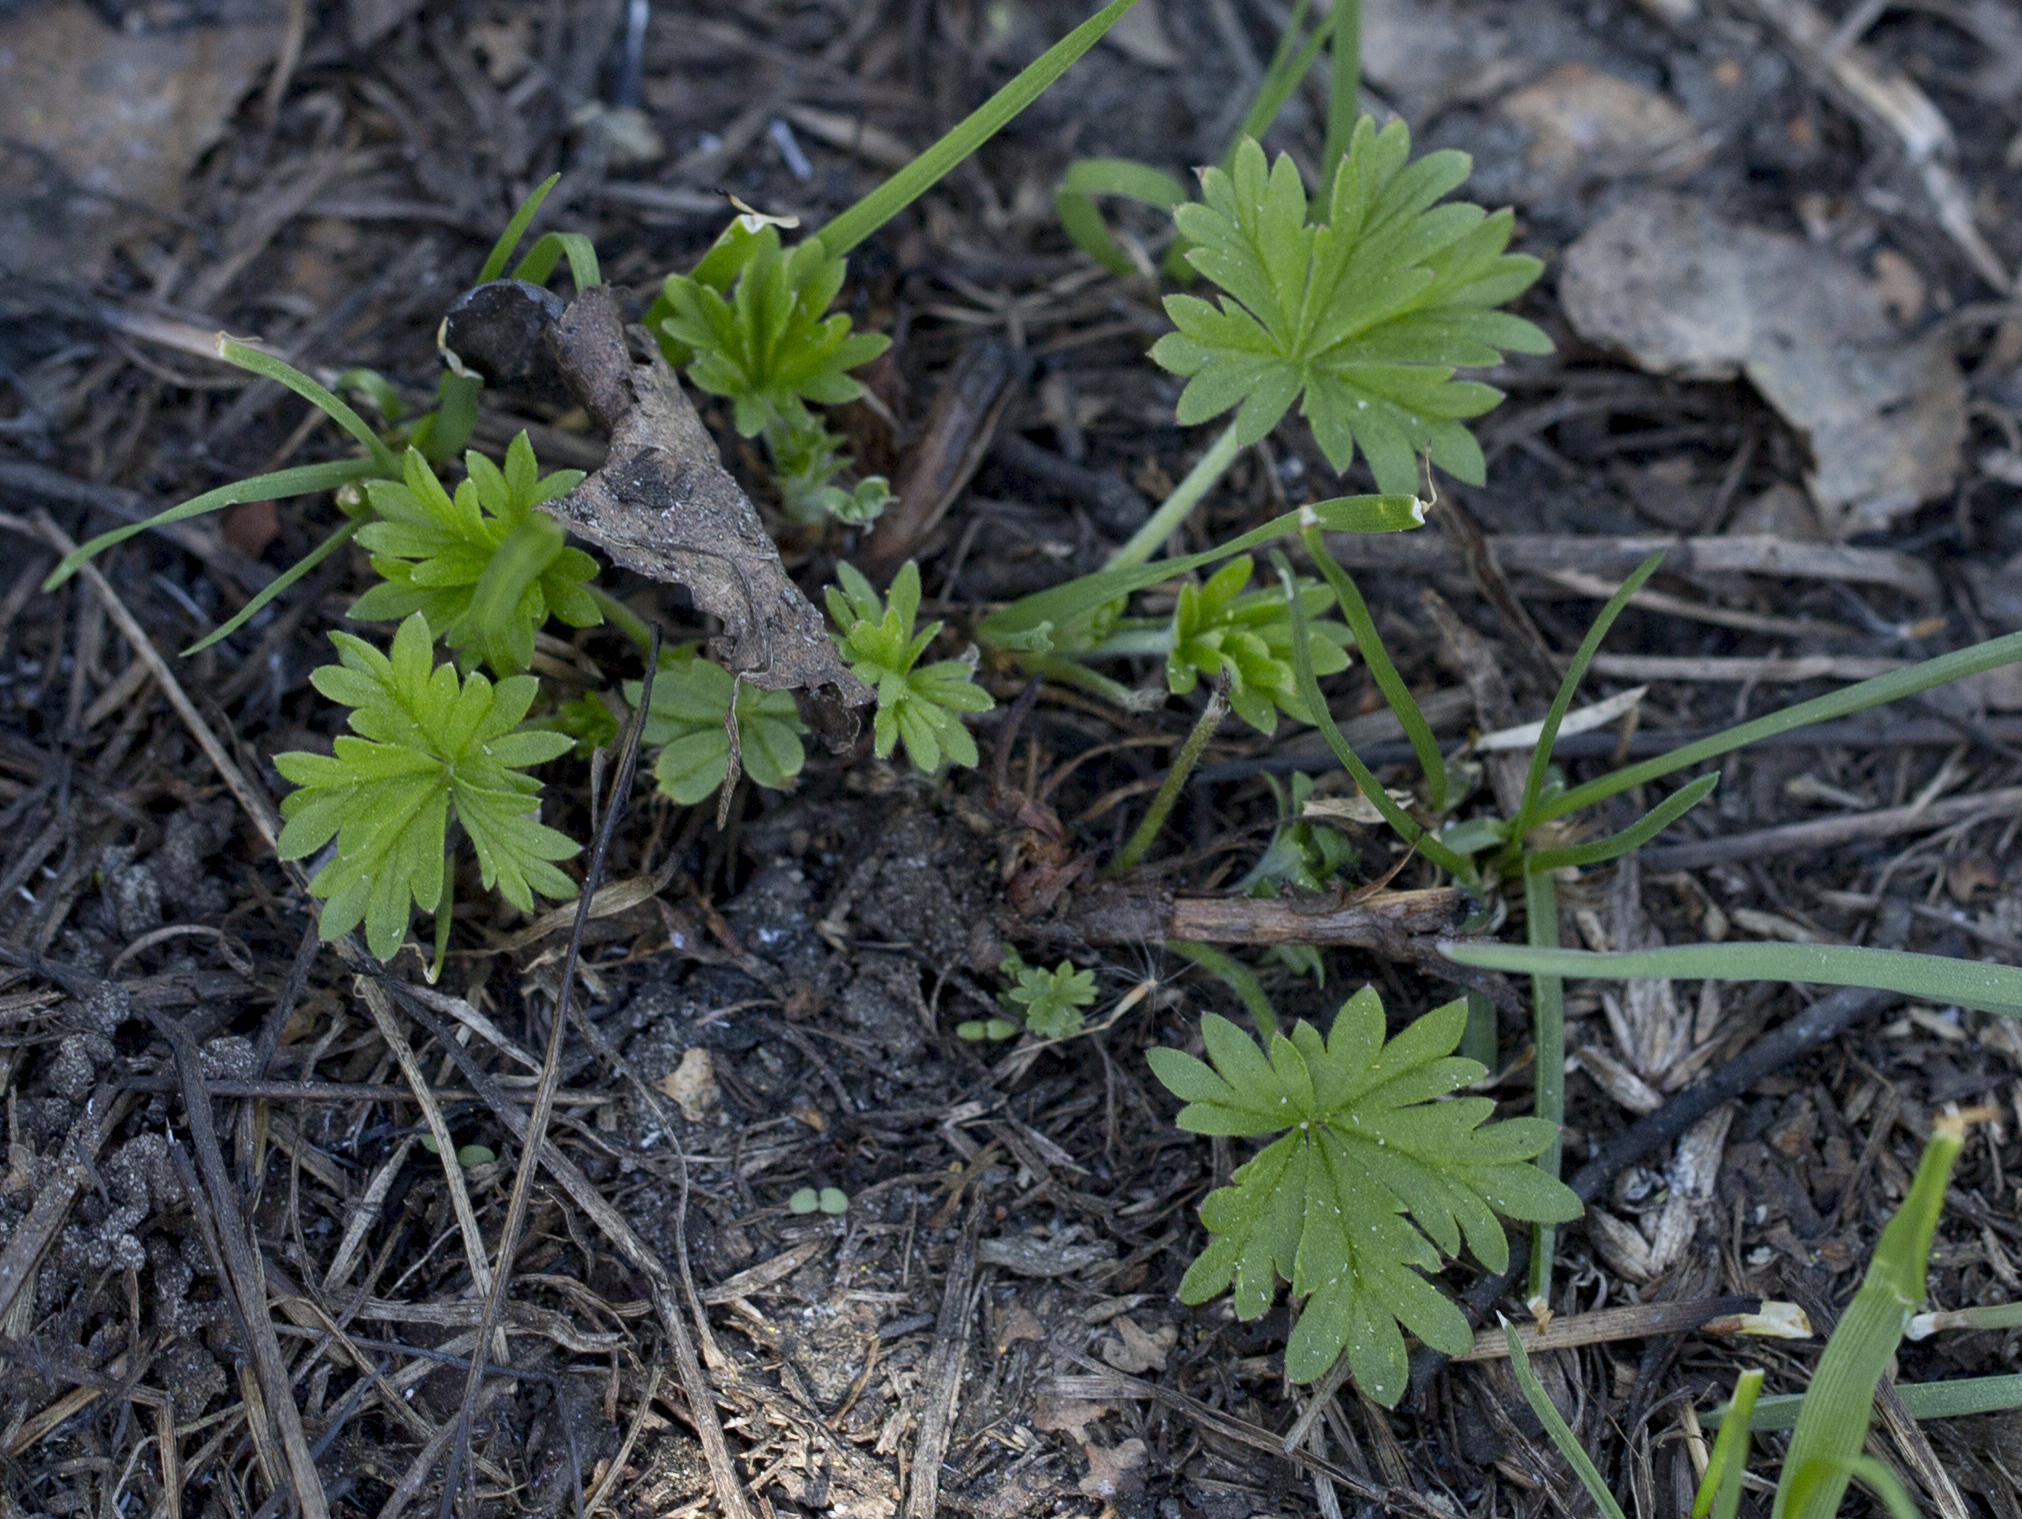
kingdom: Plantae
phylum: Tracheophyta
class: Magnoliopsida
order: Rosales
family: Rosaceae
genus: Potentilla
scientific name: Potentilla argentea
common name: Hoary cinquefoil
